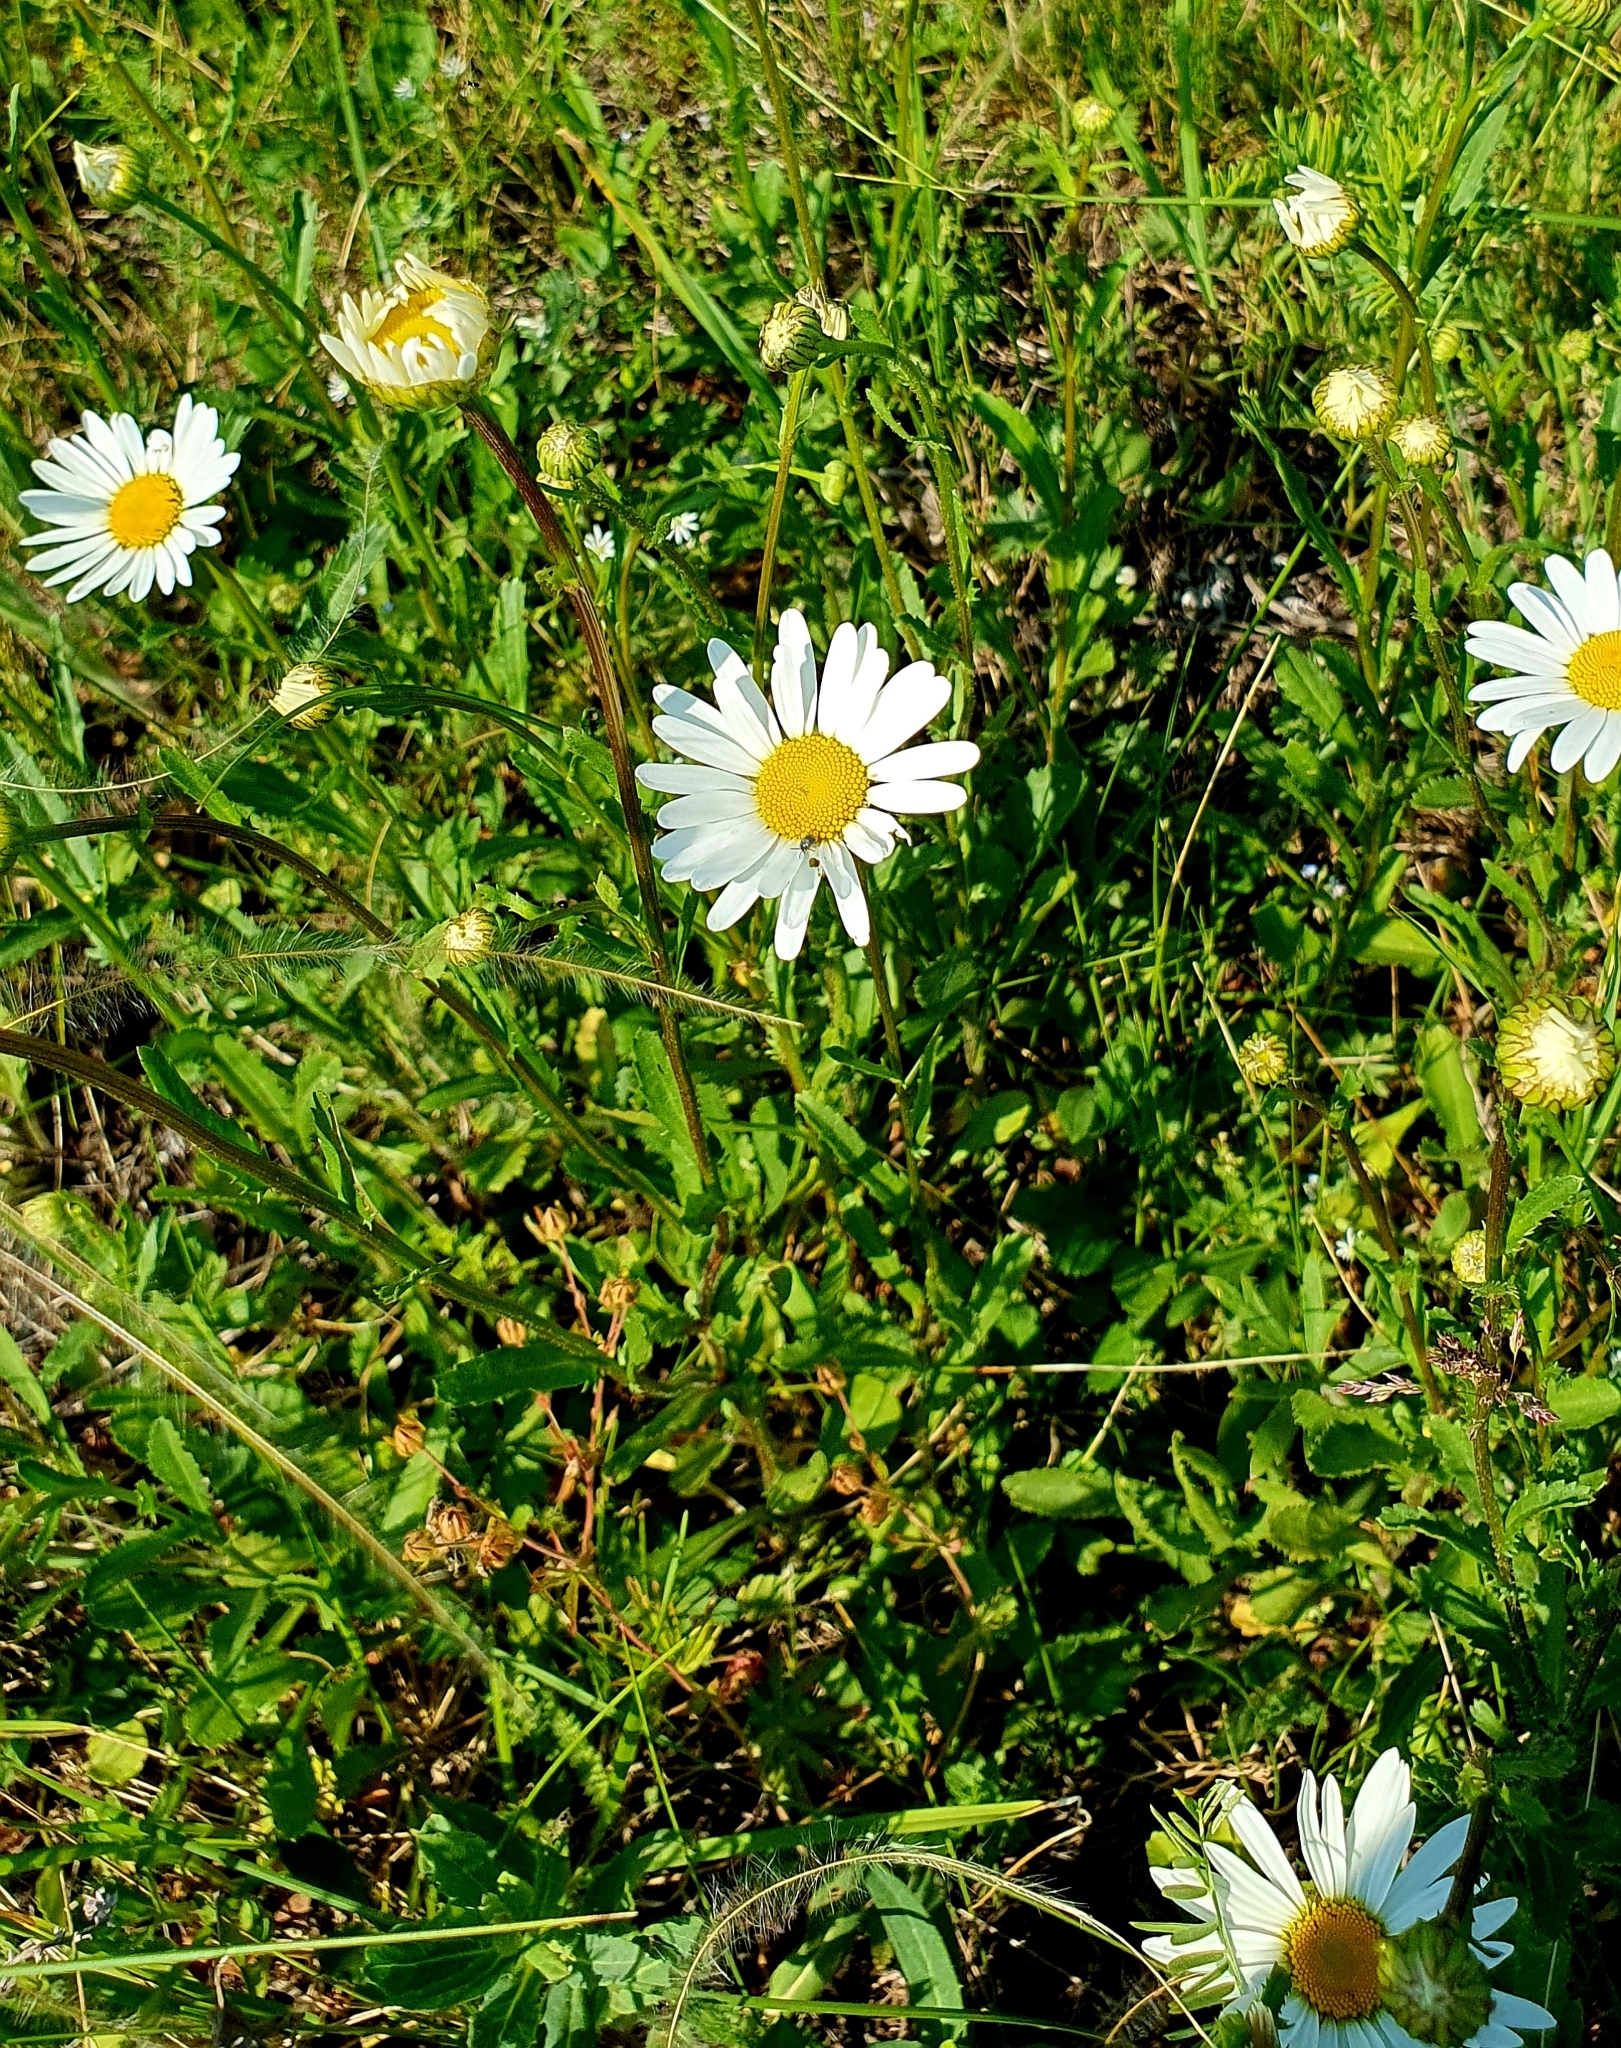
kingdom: Plantae
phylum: Tracheophyta
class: Magnoliopsida
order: Asterales
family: Asteraceae
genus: Leucanthemum
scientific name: Leucanthemum vulgare
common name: Oxeye daisy
